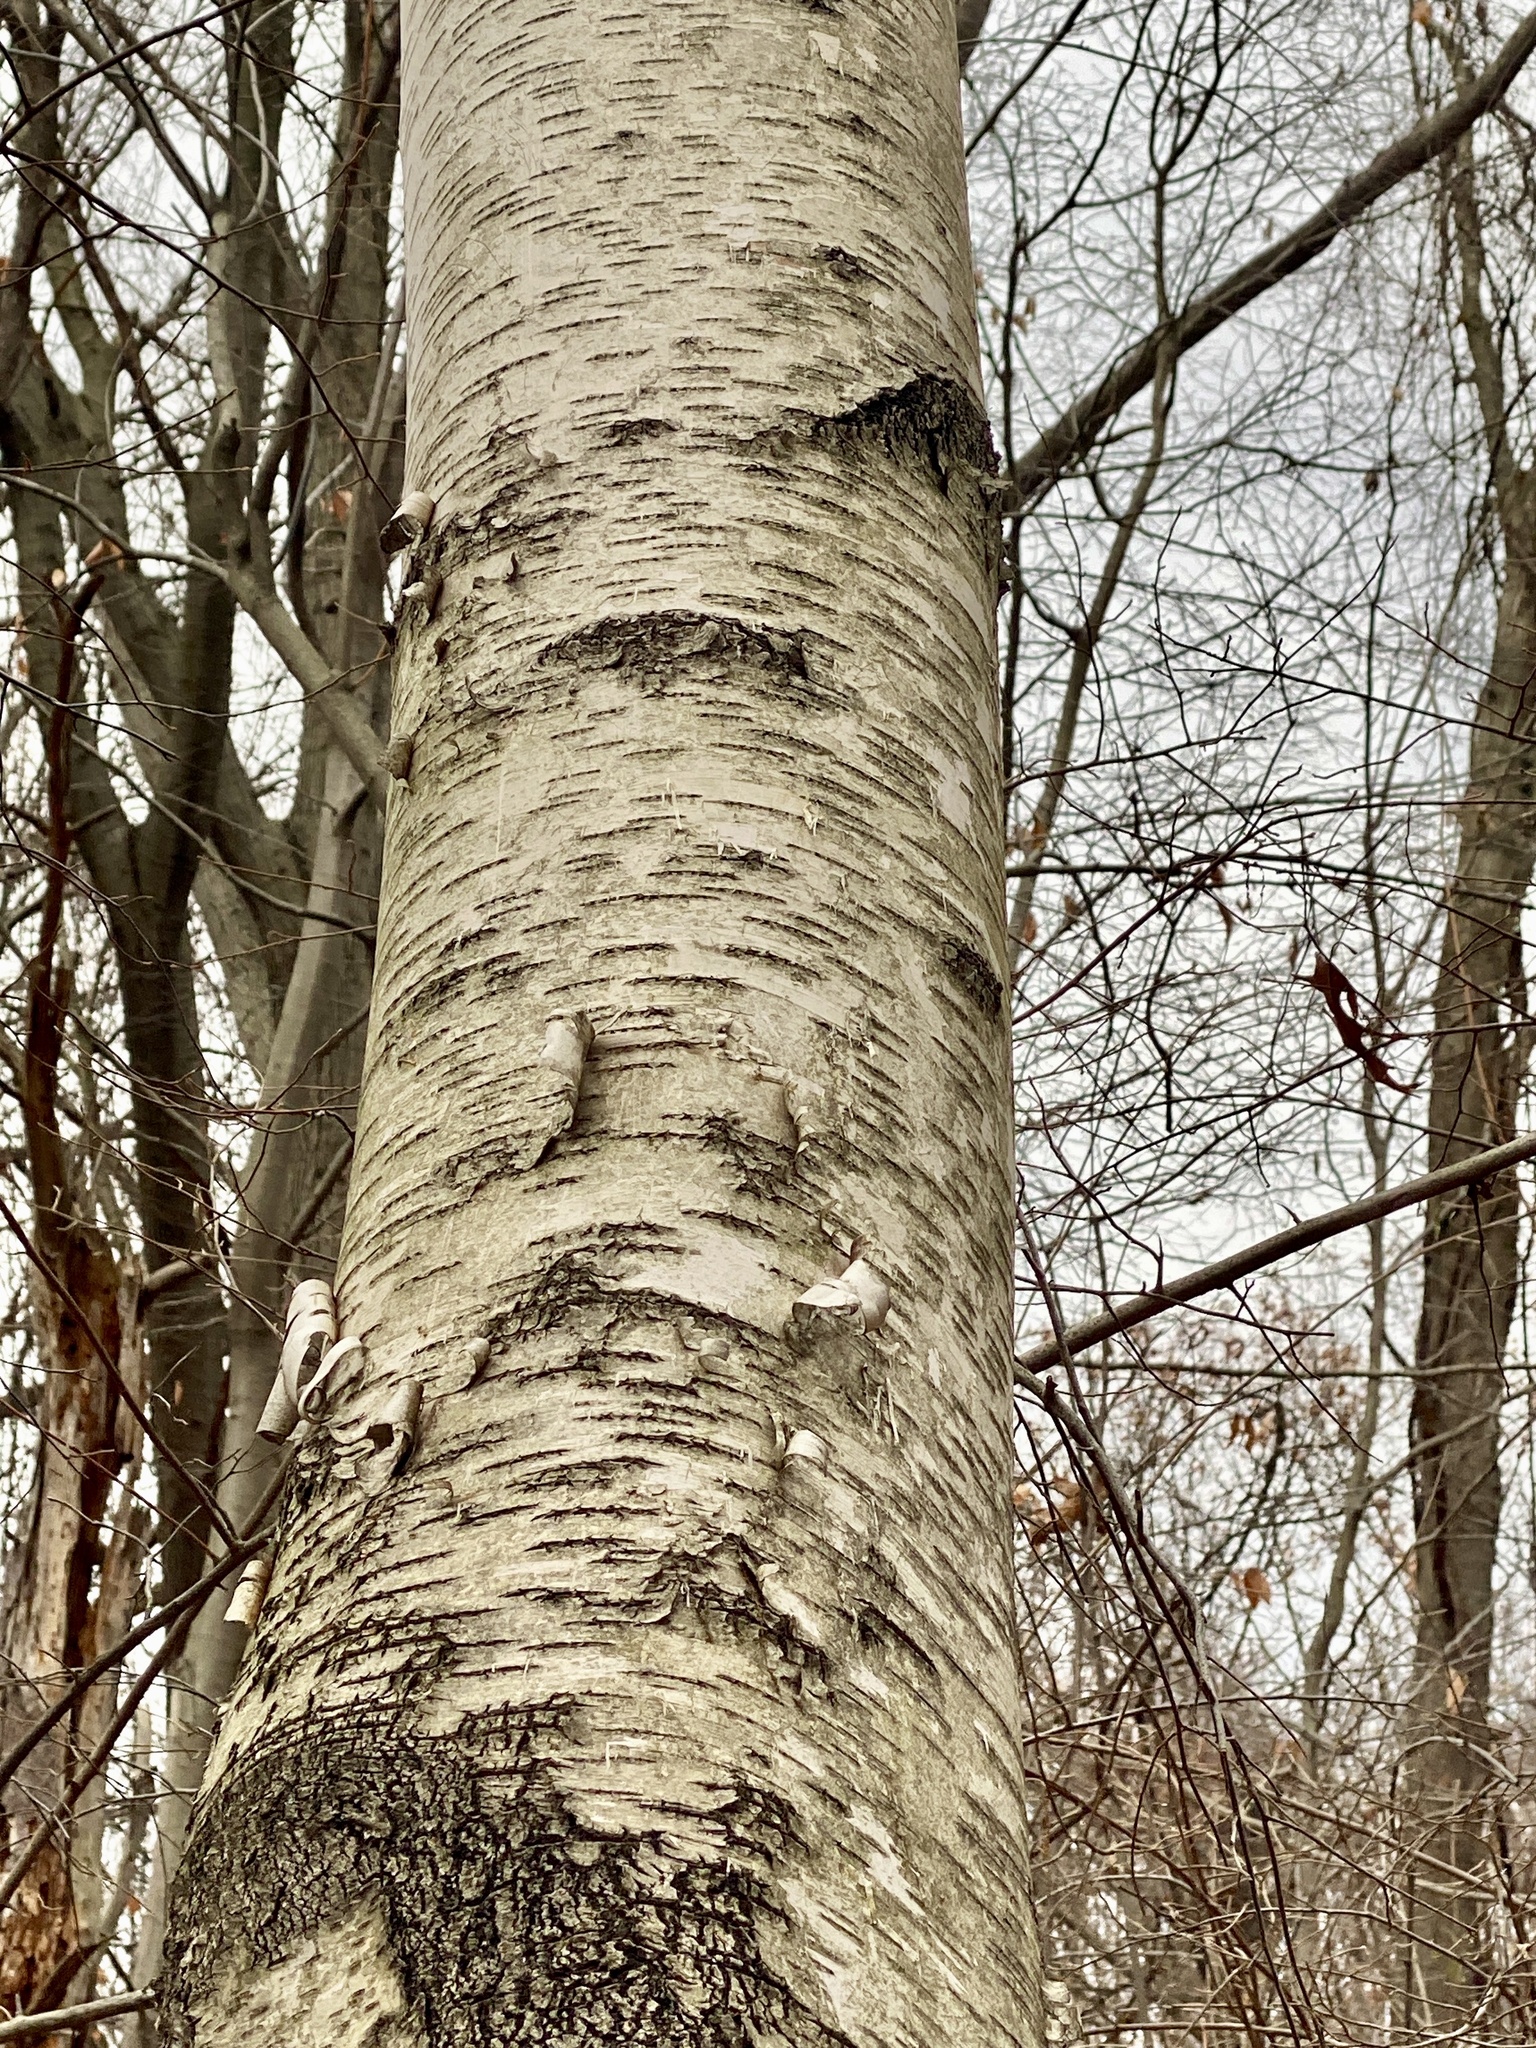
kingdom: Plantae
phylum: Tracheophyta
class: Magnoliopsida
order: Fagales
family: Betulaceae
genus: Betula
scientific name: Betula papyrifera
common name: Paper birch
